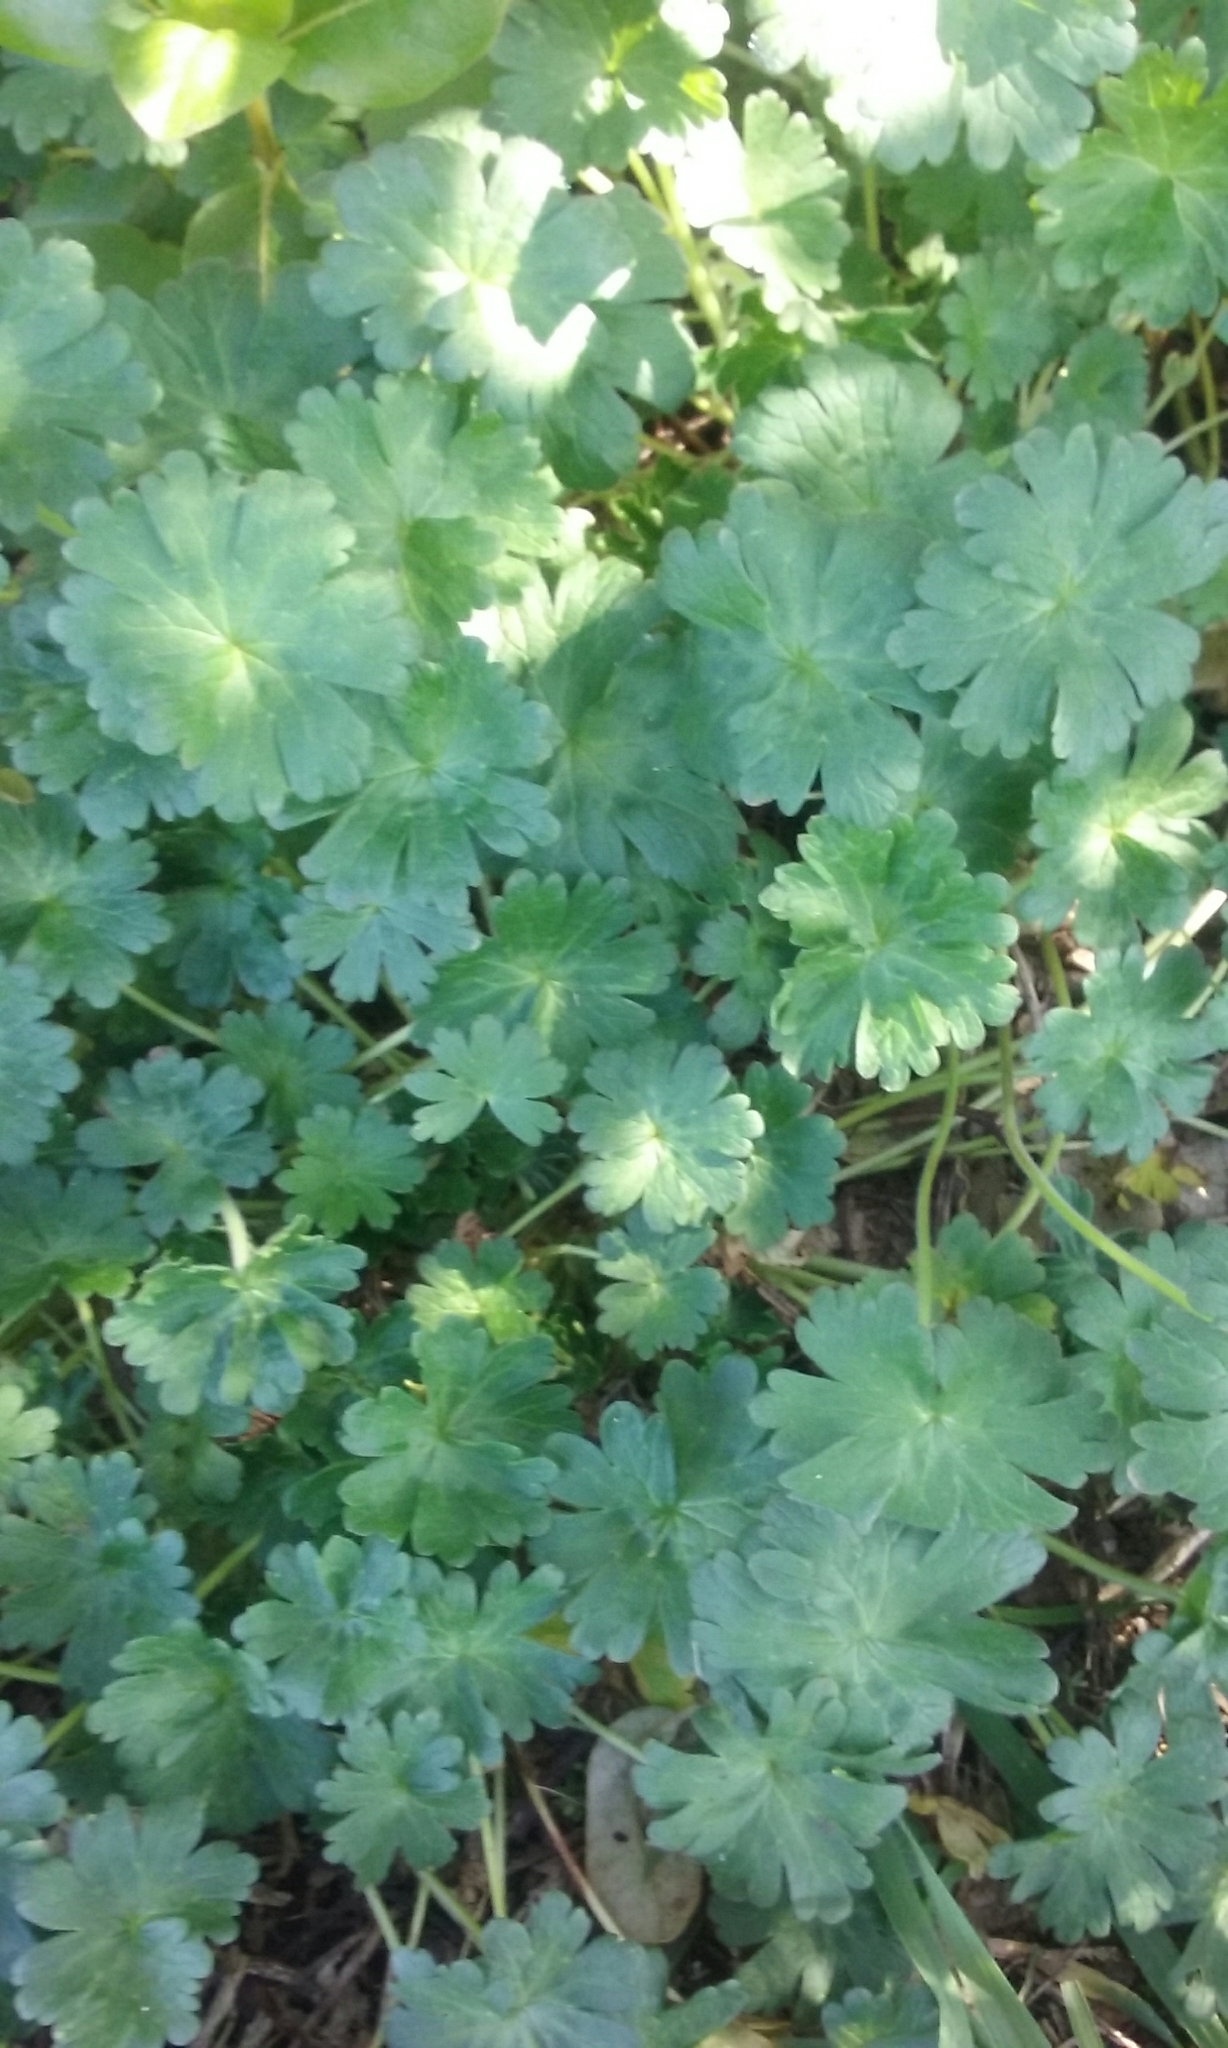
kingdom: Plantae
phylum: Tracheophyta
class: Magnoliopsida
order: Geraniales
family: Geraniaceae
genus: Geranium
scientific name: Geranium molle
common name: Dove's-foot crane's-bill
